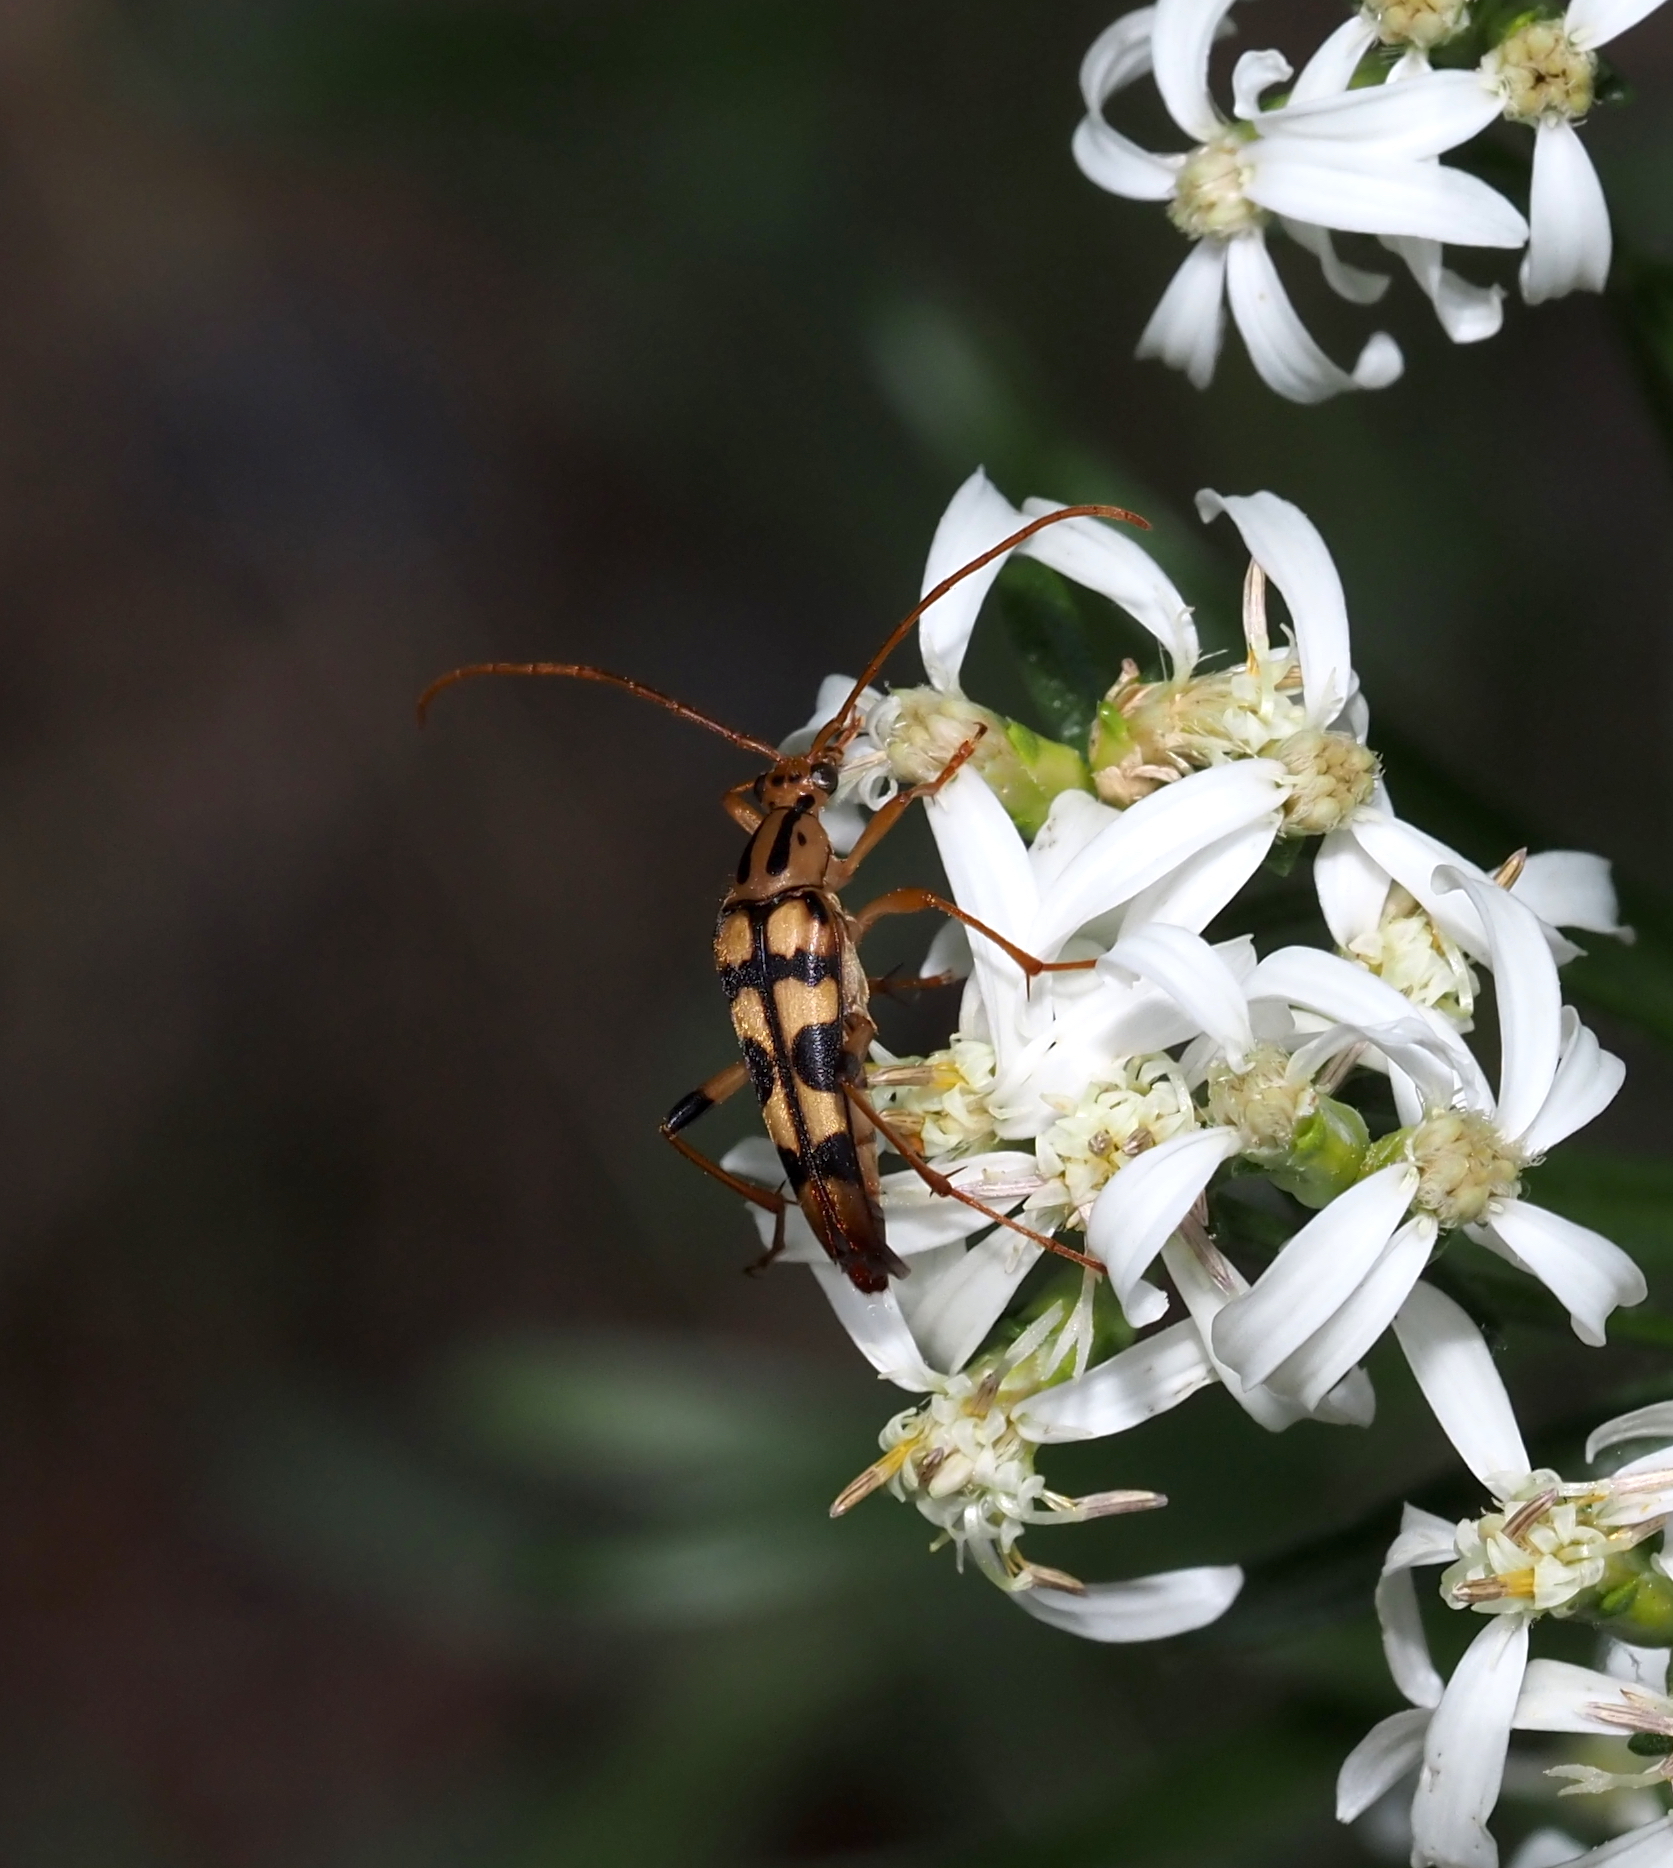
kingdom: Animalia
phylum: Arthropoda
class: Insecta
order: Coleoptera
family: Cerambycidae
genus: Strangalia
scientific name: Strangalia luteicornis
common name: Yellow-horned flower longhorn beetle
